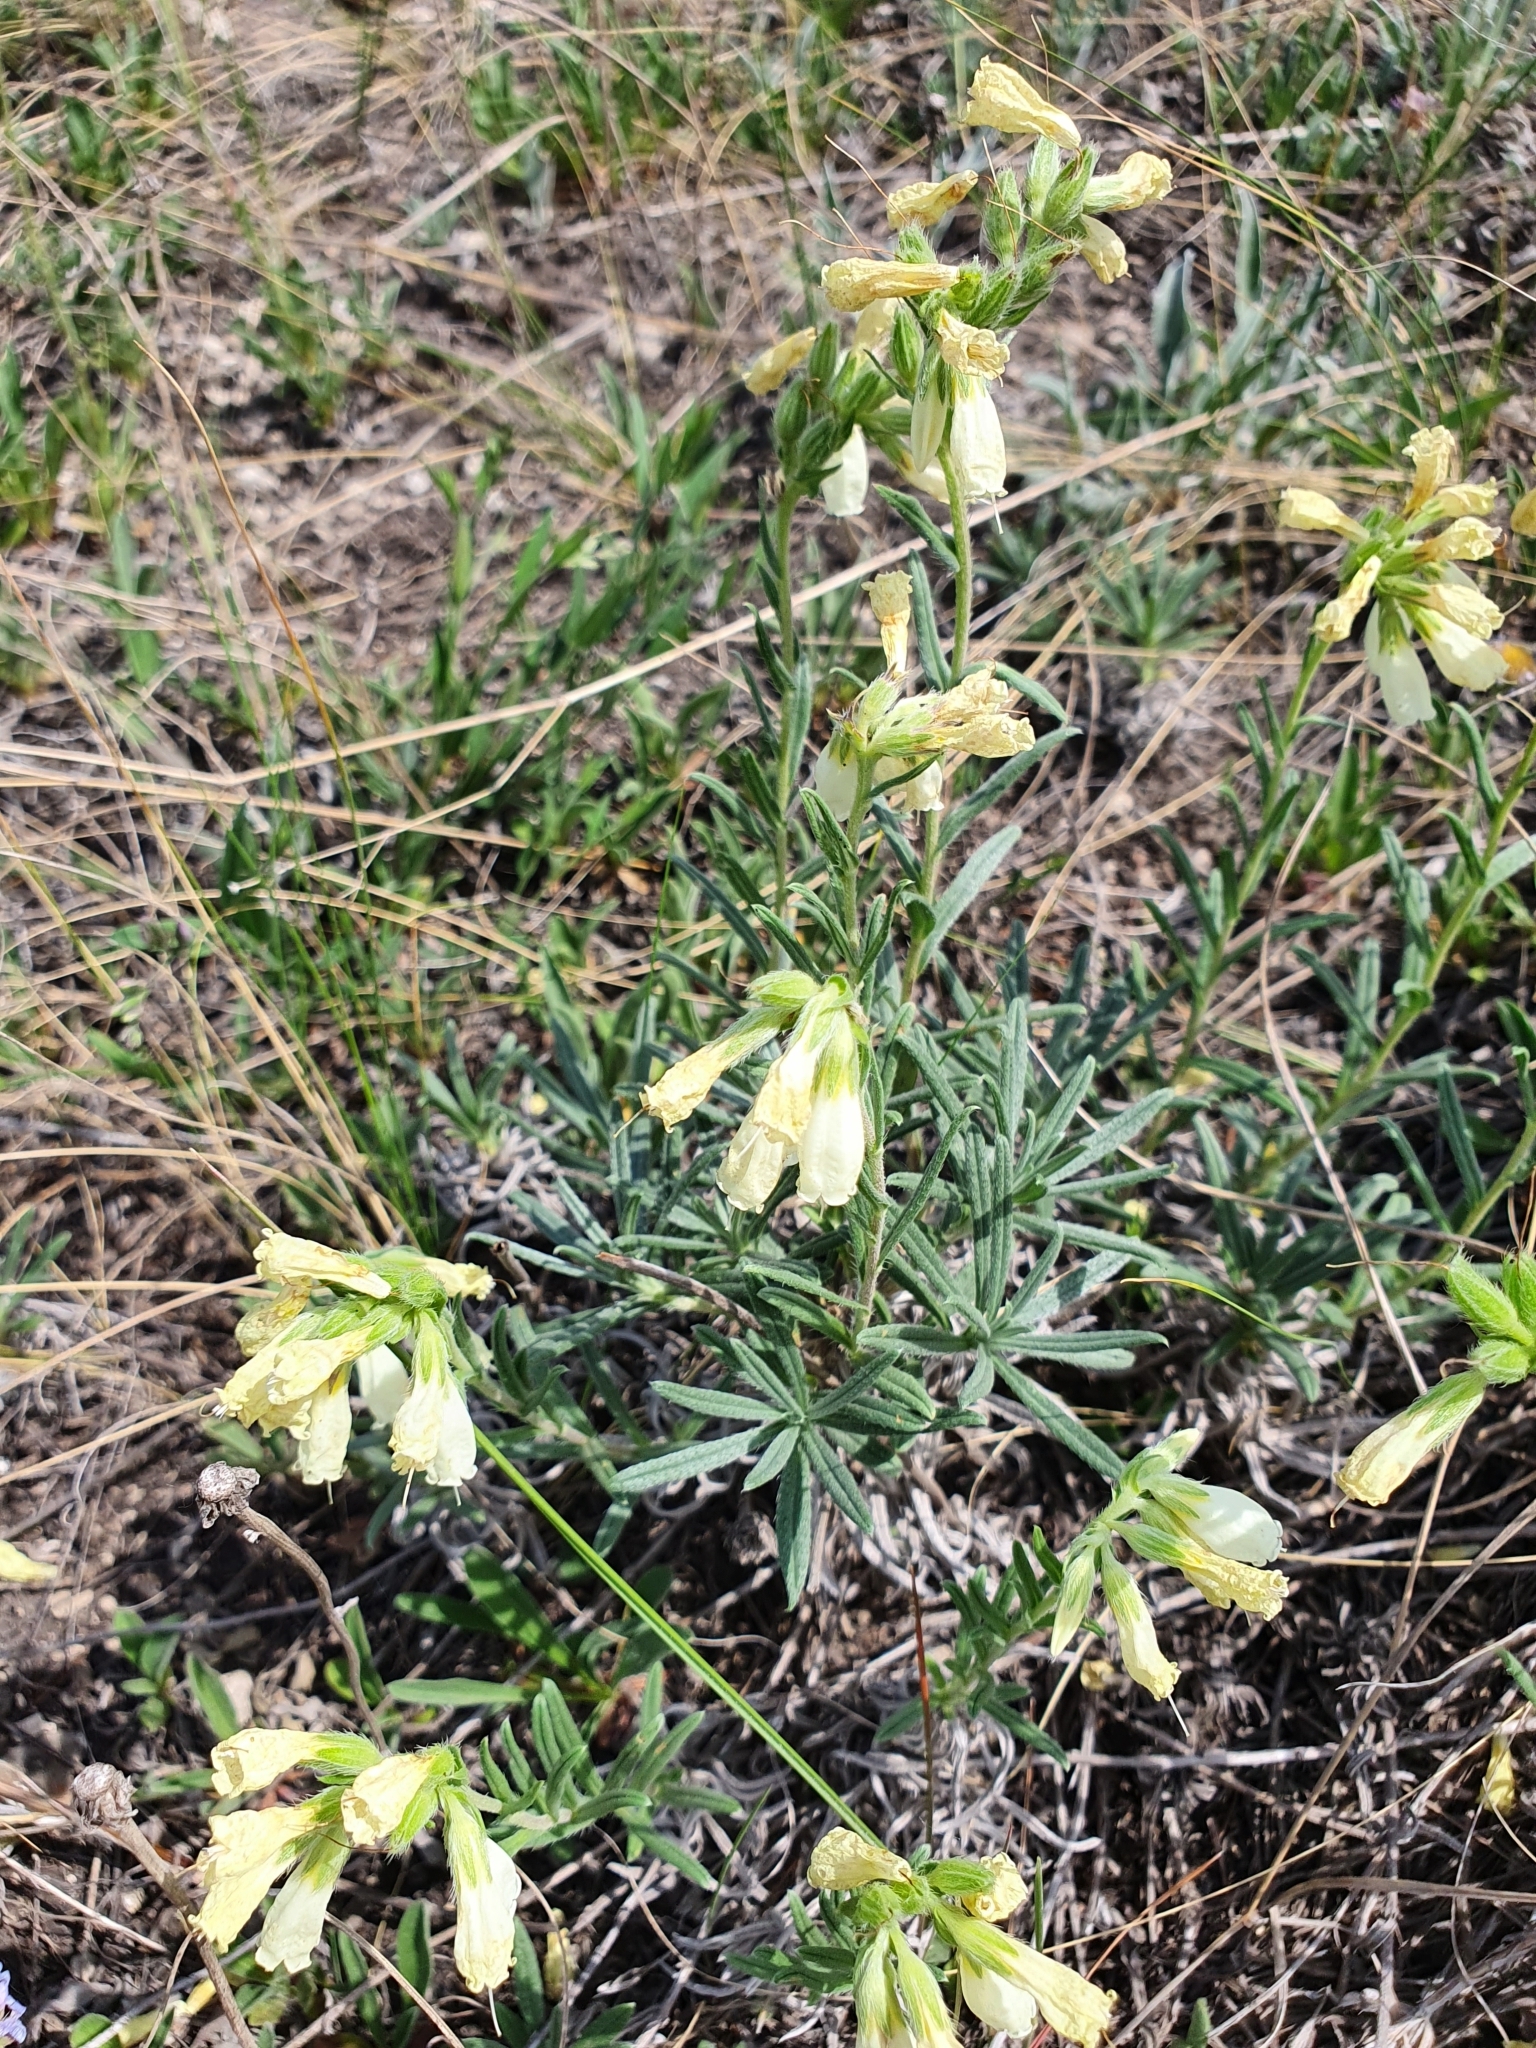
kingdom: Plantae
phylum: Tracheophyta
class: Magnoliopsida
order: Boraginales
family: Boraginaceae
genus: Onosma
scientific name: Onosma simplicissima
